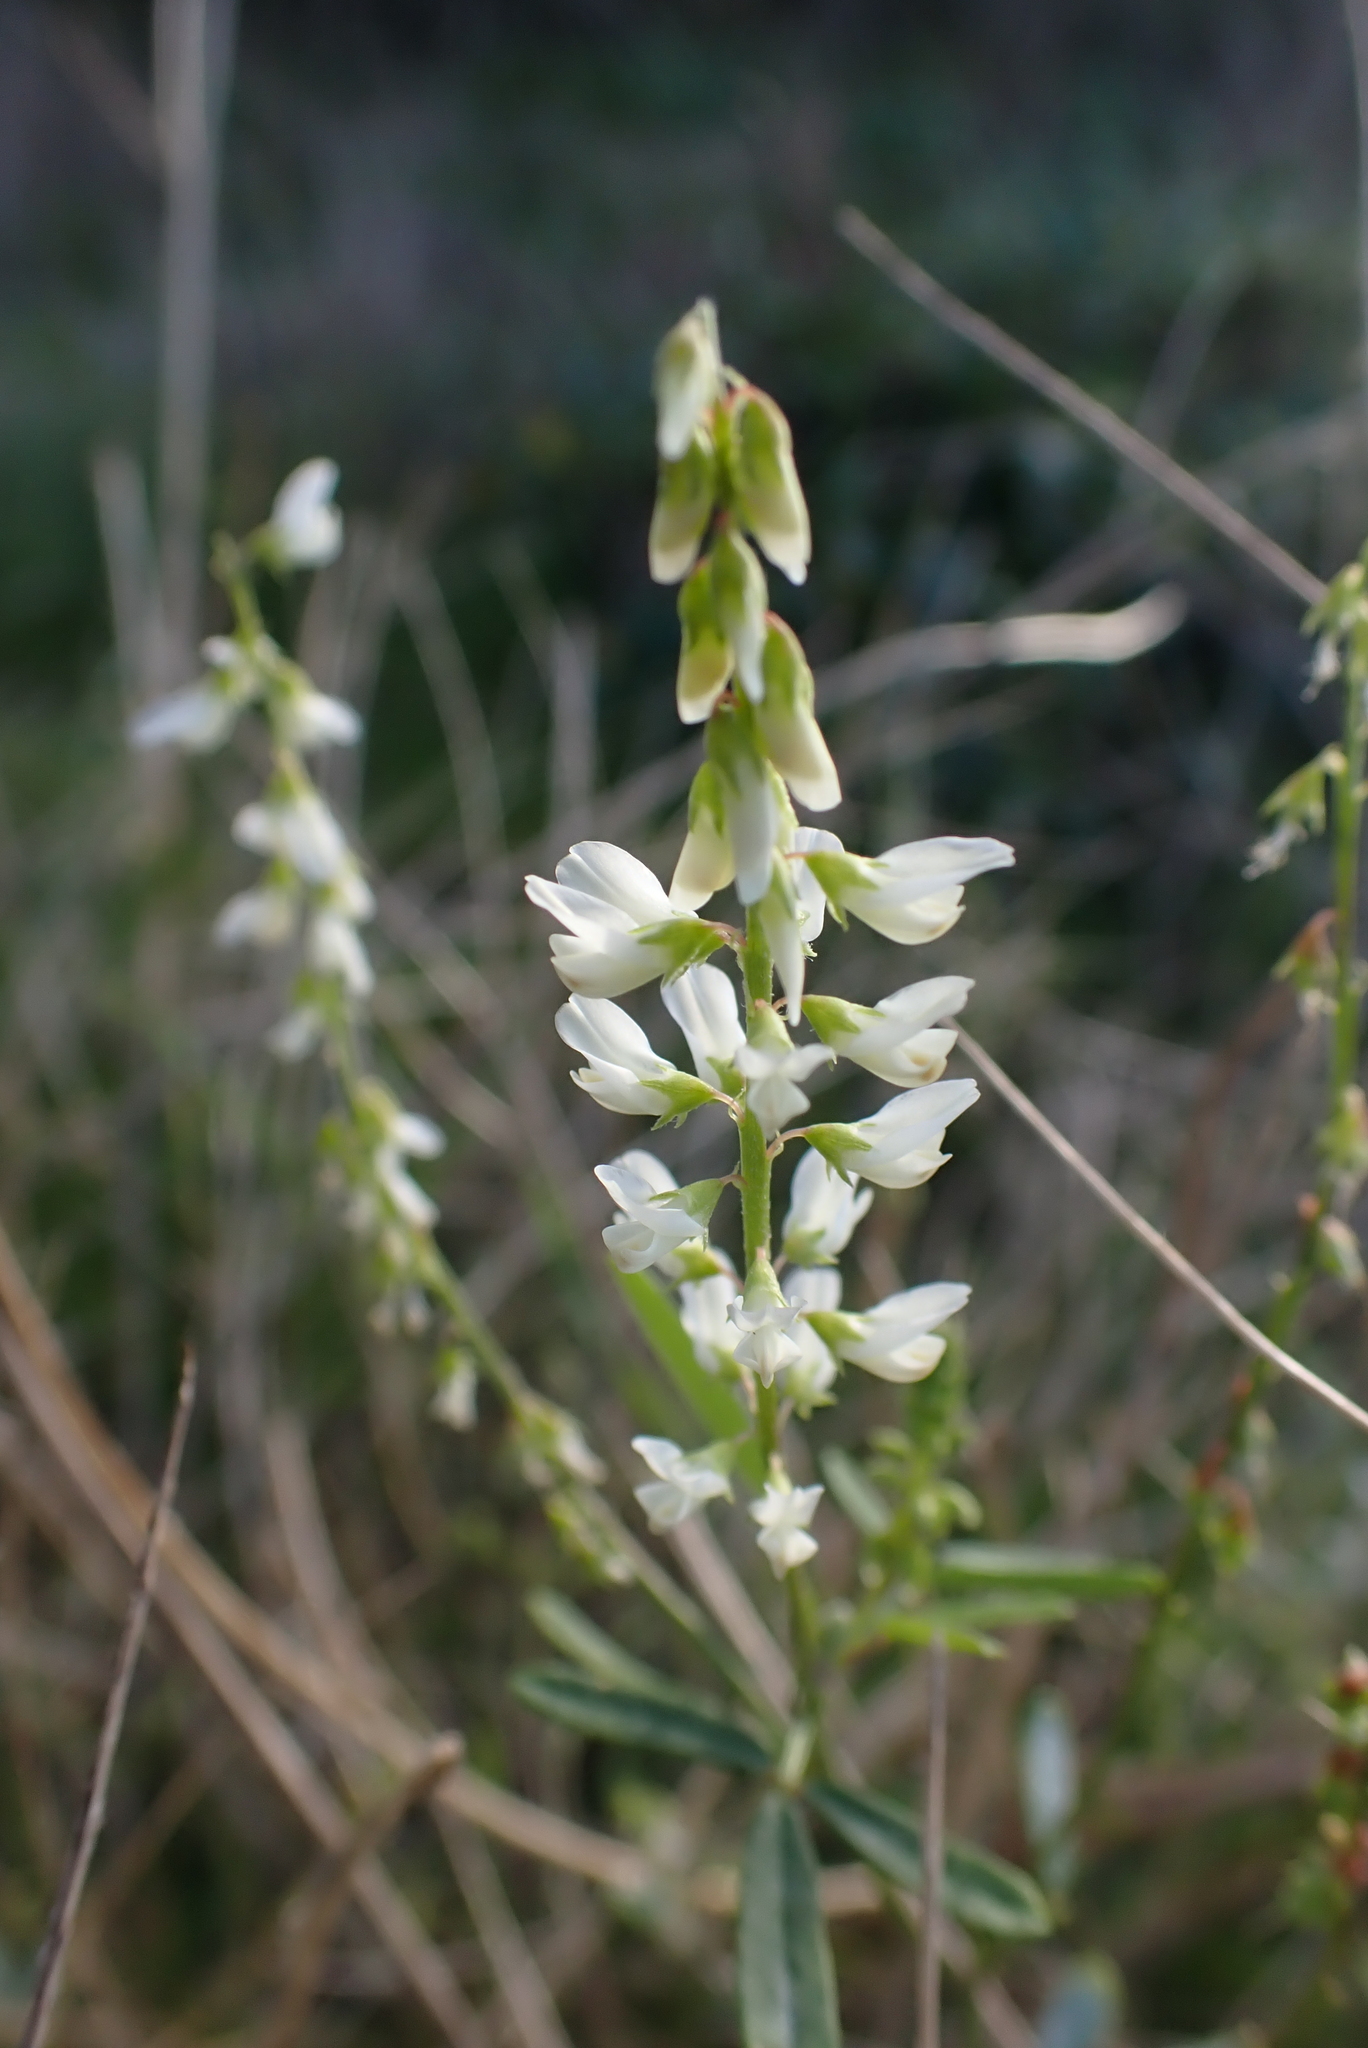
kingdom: Plantae
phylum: Tracheophyta
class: Magnoliopsida
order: Fabales
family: Fabaceae
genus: Melilotus
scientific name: Melilotus albus
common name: White melilot
